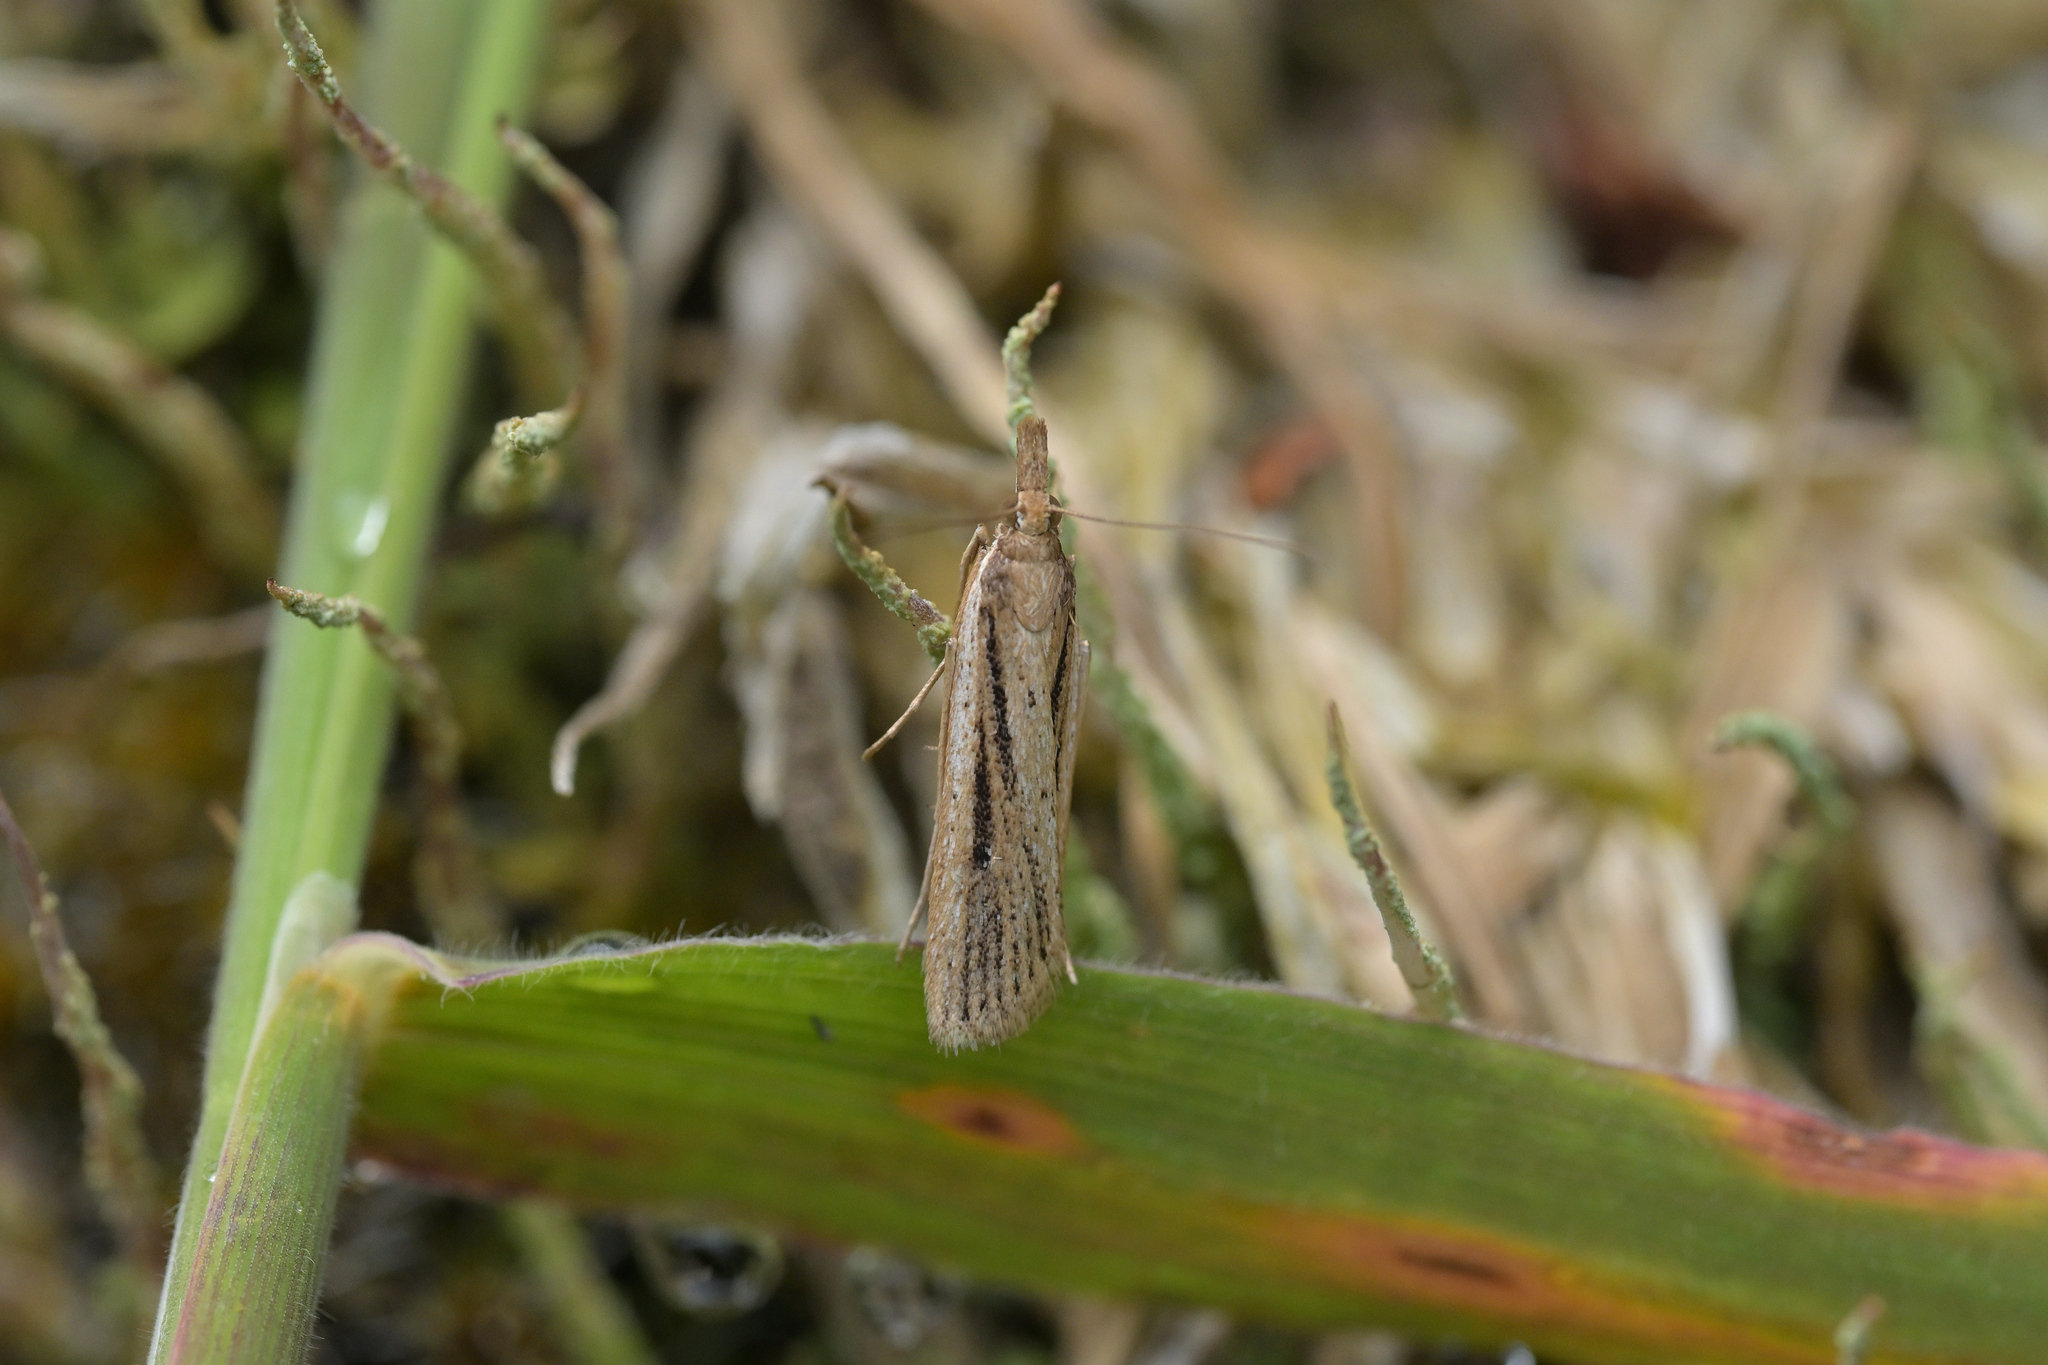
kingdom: Animalia
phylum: Arthropoda
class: Insecta
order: Lepidoptera
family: Crambidae
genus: Eudonia
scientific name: Eudonia sabulosella
